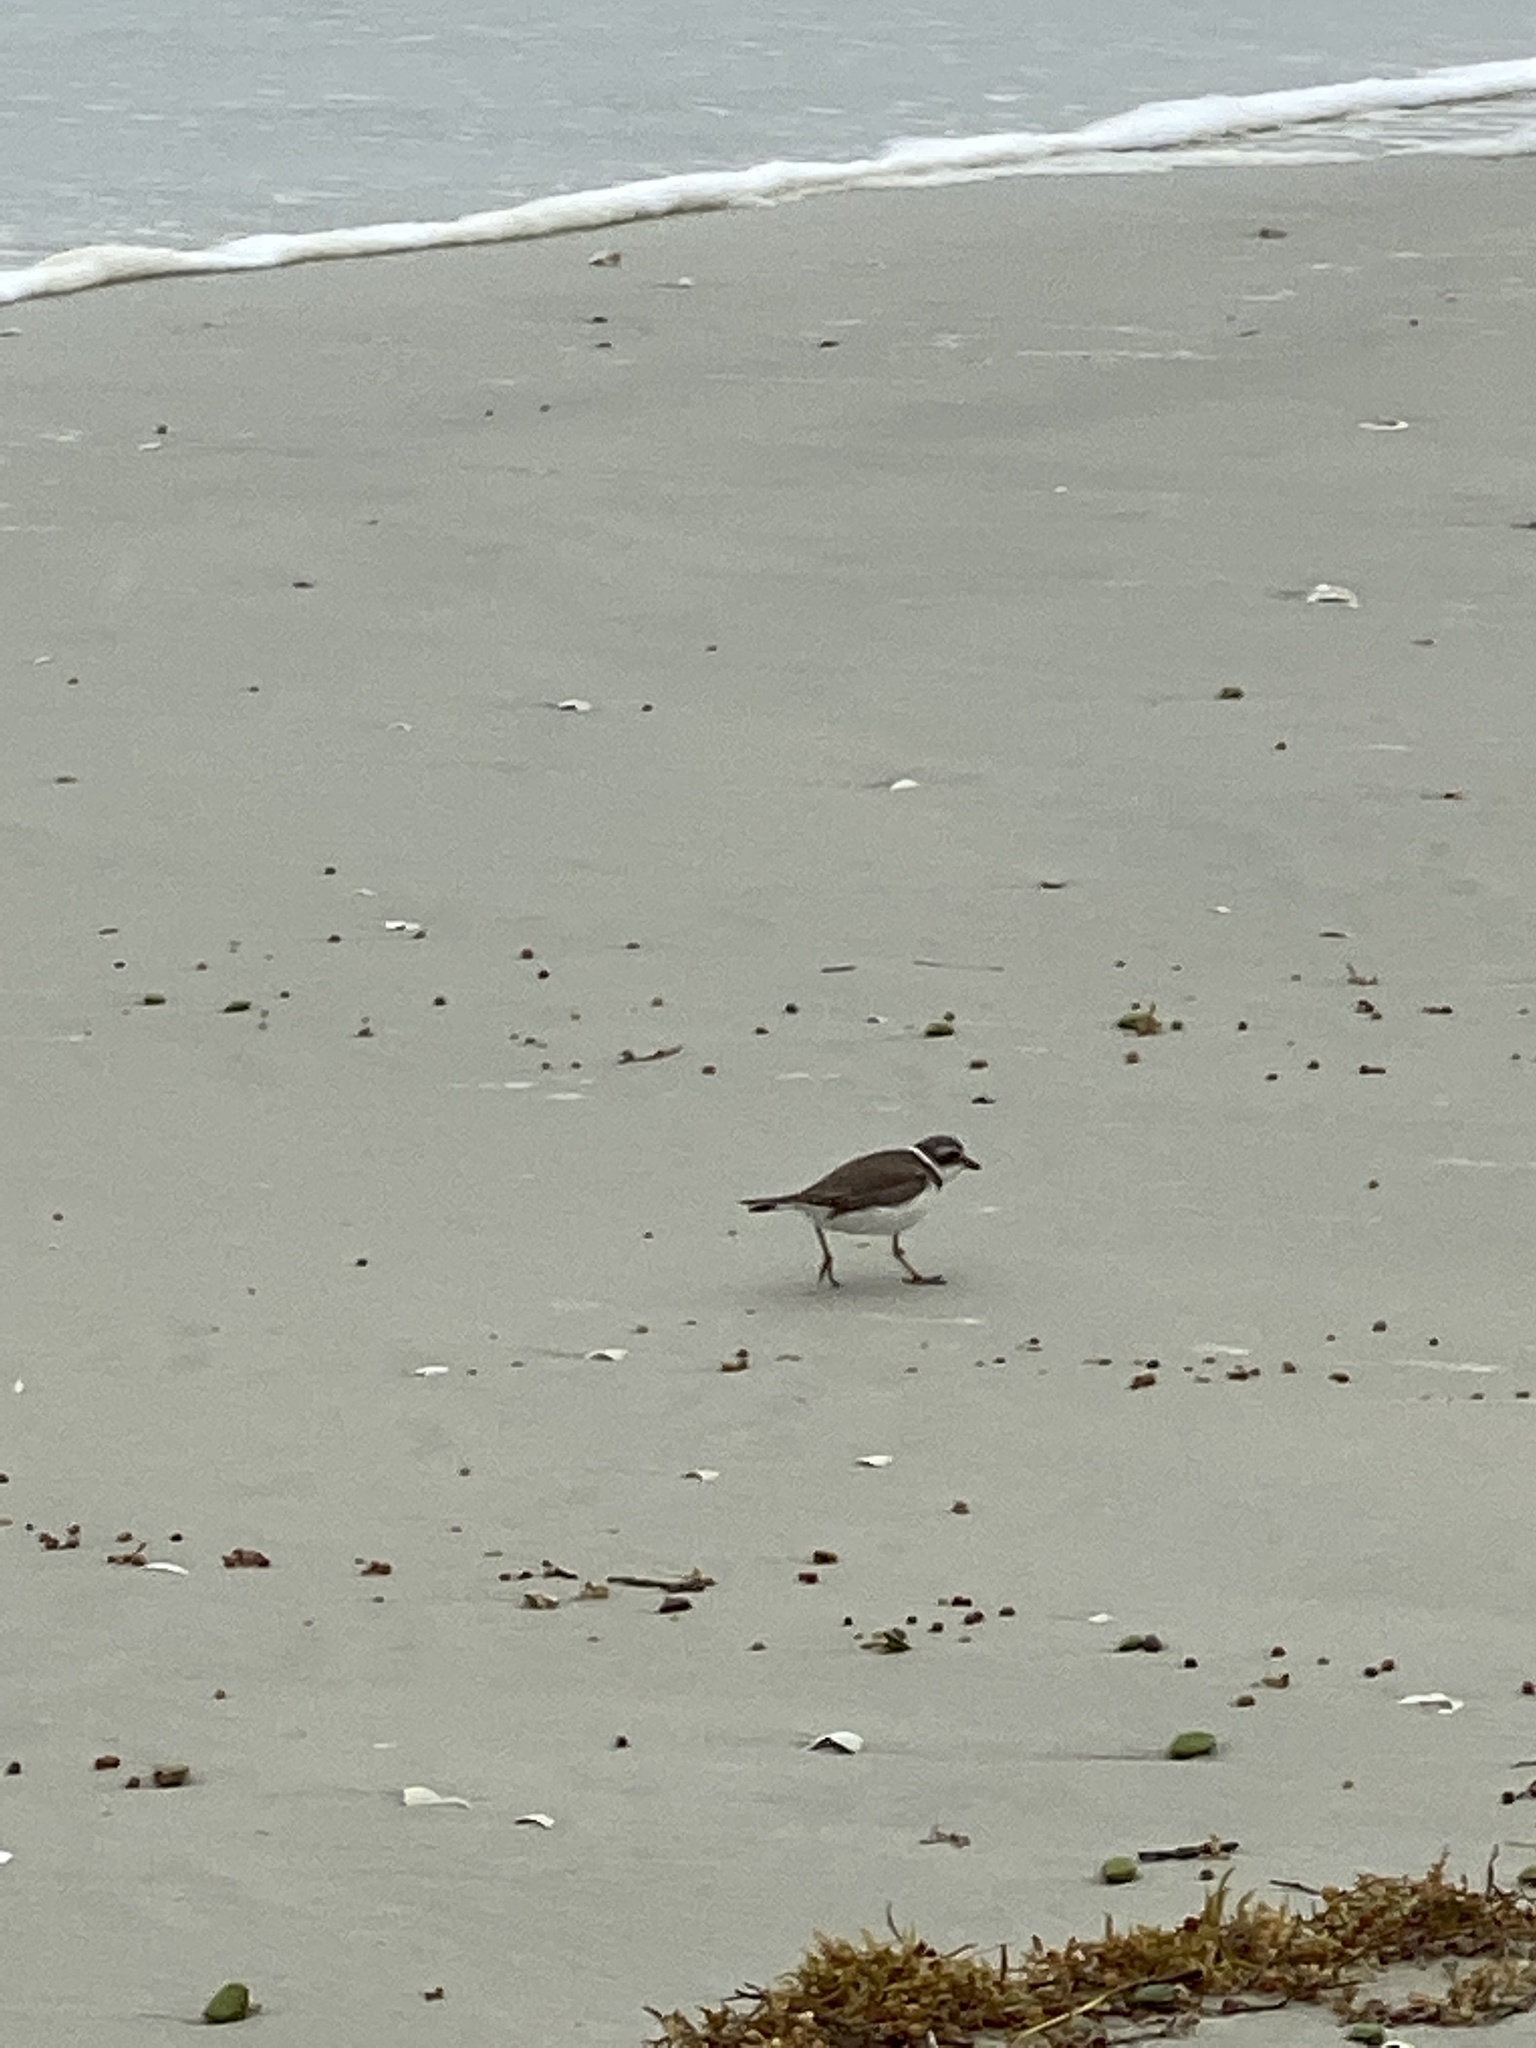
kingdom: Animalia
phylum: Chordata
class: Aves
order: Charadriiformes
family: Charadriidae
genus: Charadrius
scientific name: Charadrius semipalmatus
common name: Semipalmated plover
